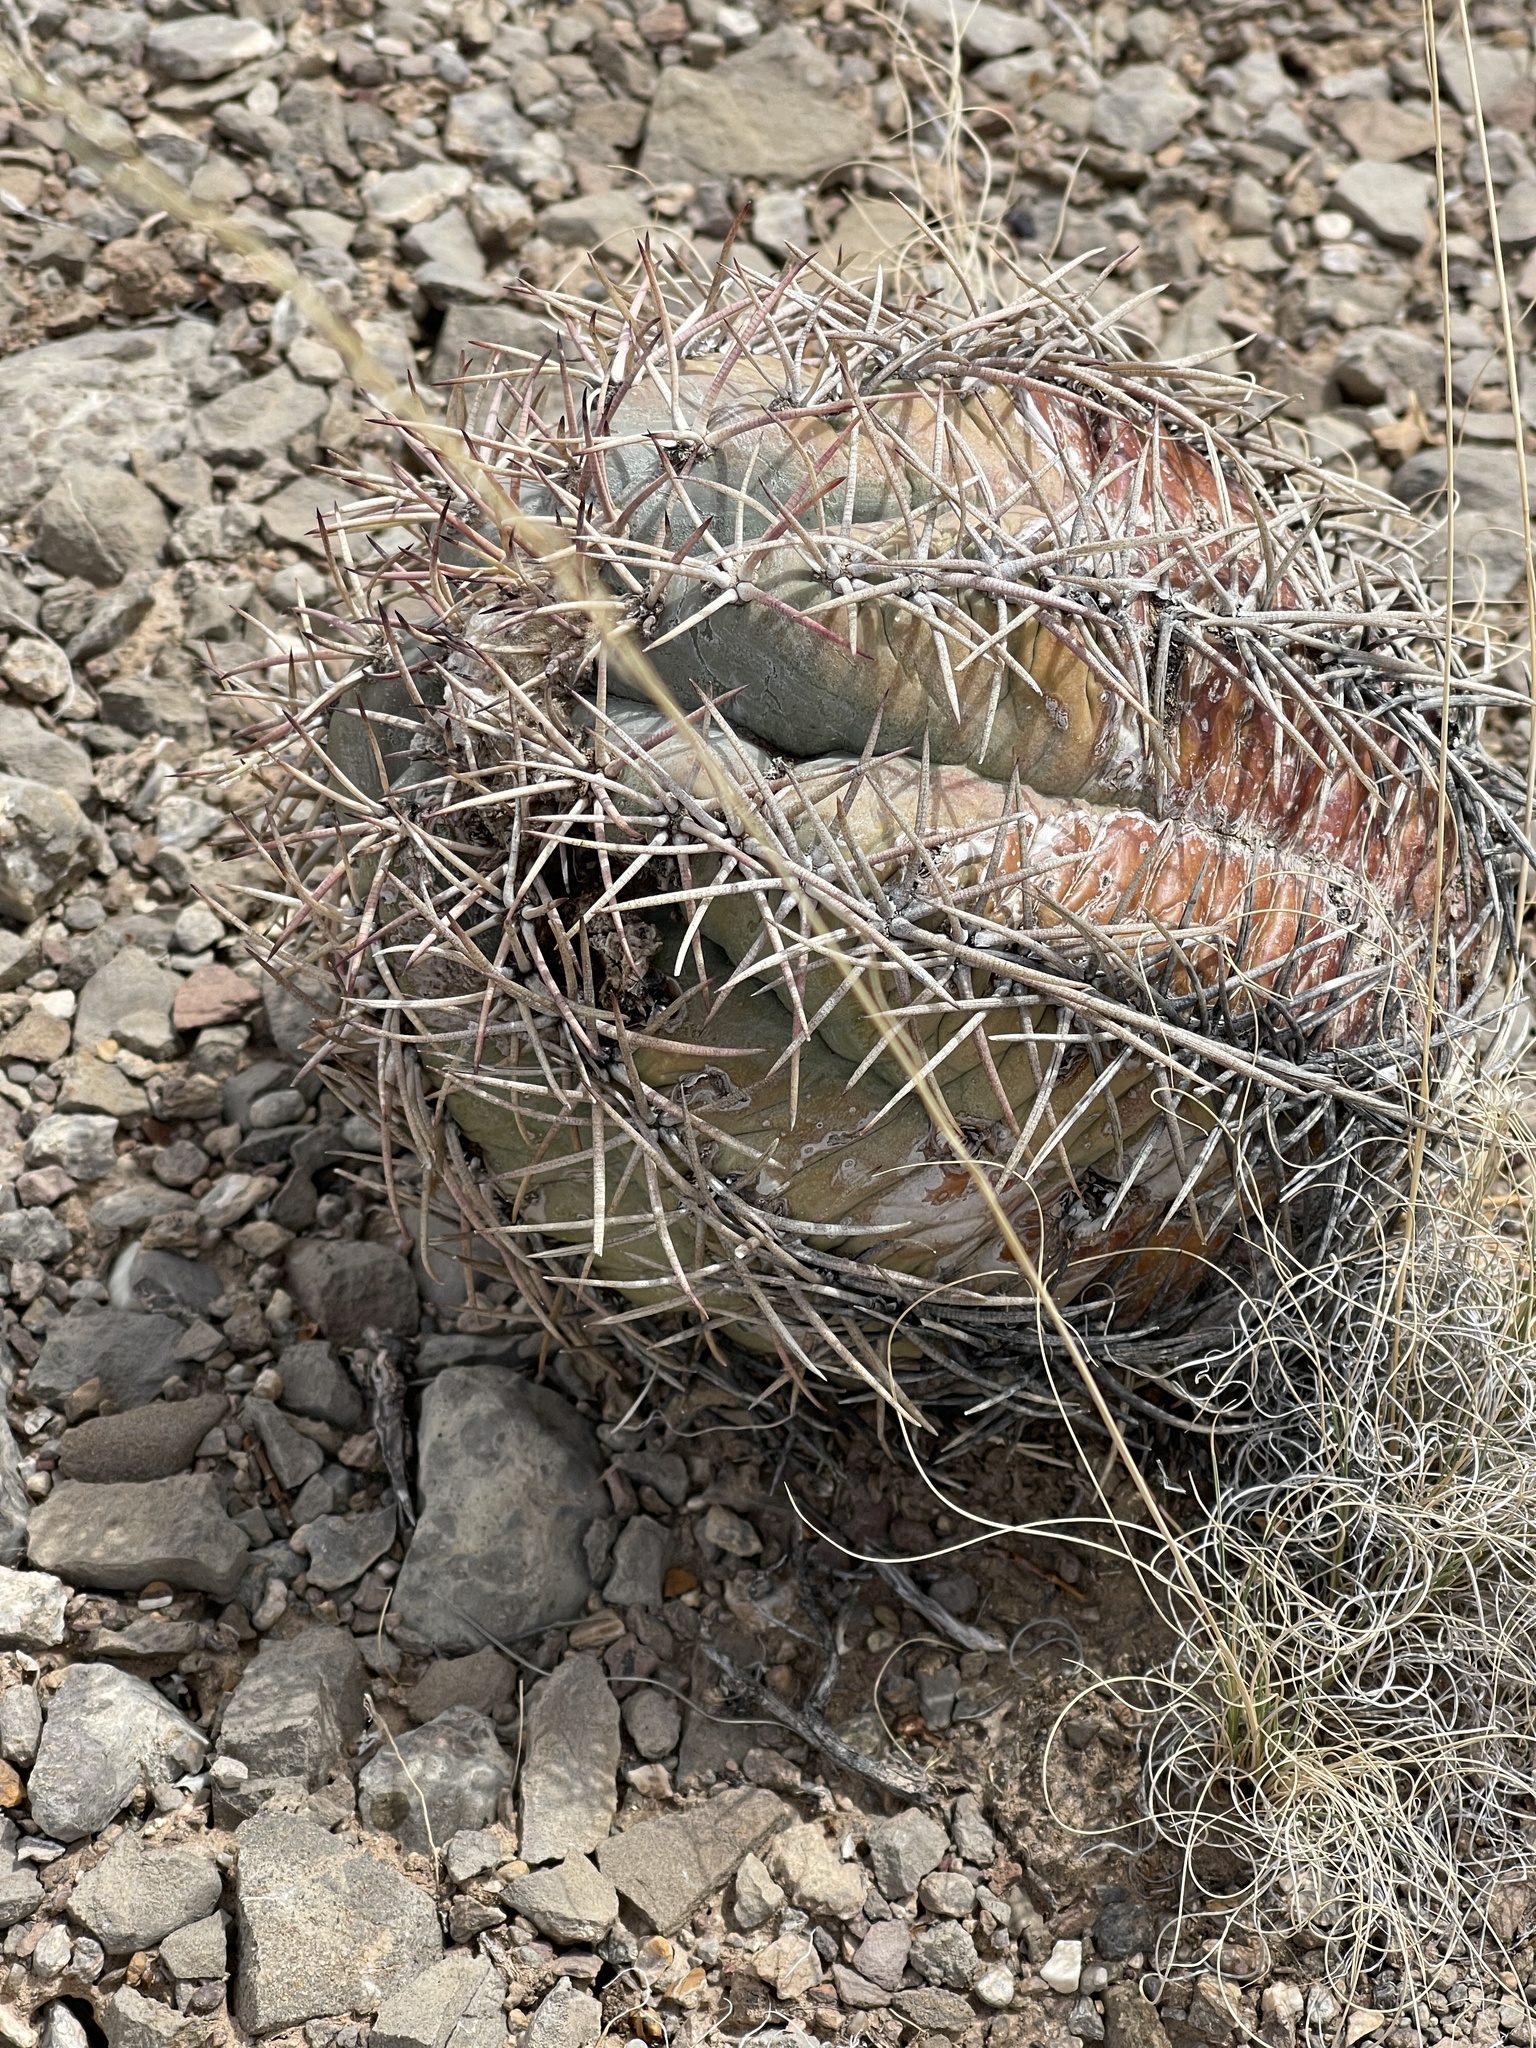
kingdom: Plantae
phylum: Tracheophyta
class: Magnoliopsida
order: Caryophyllales
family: Cactaceae
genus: Echinocactus
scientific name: Echinocactus horizonthalonius
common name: Devilshead
